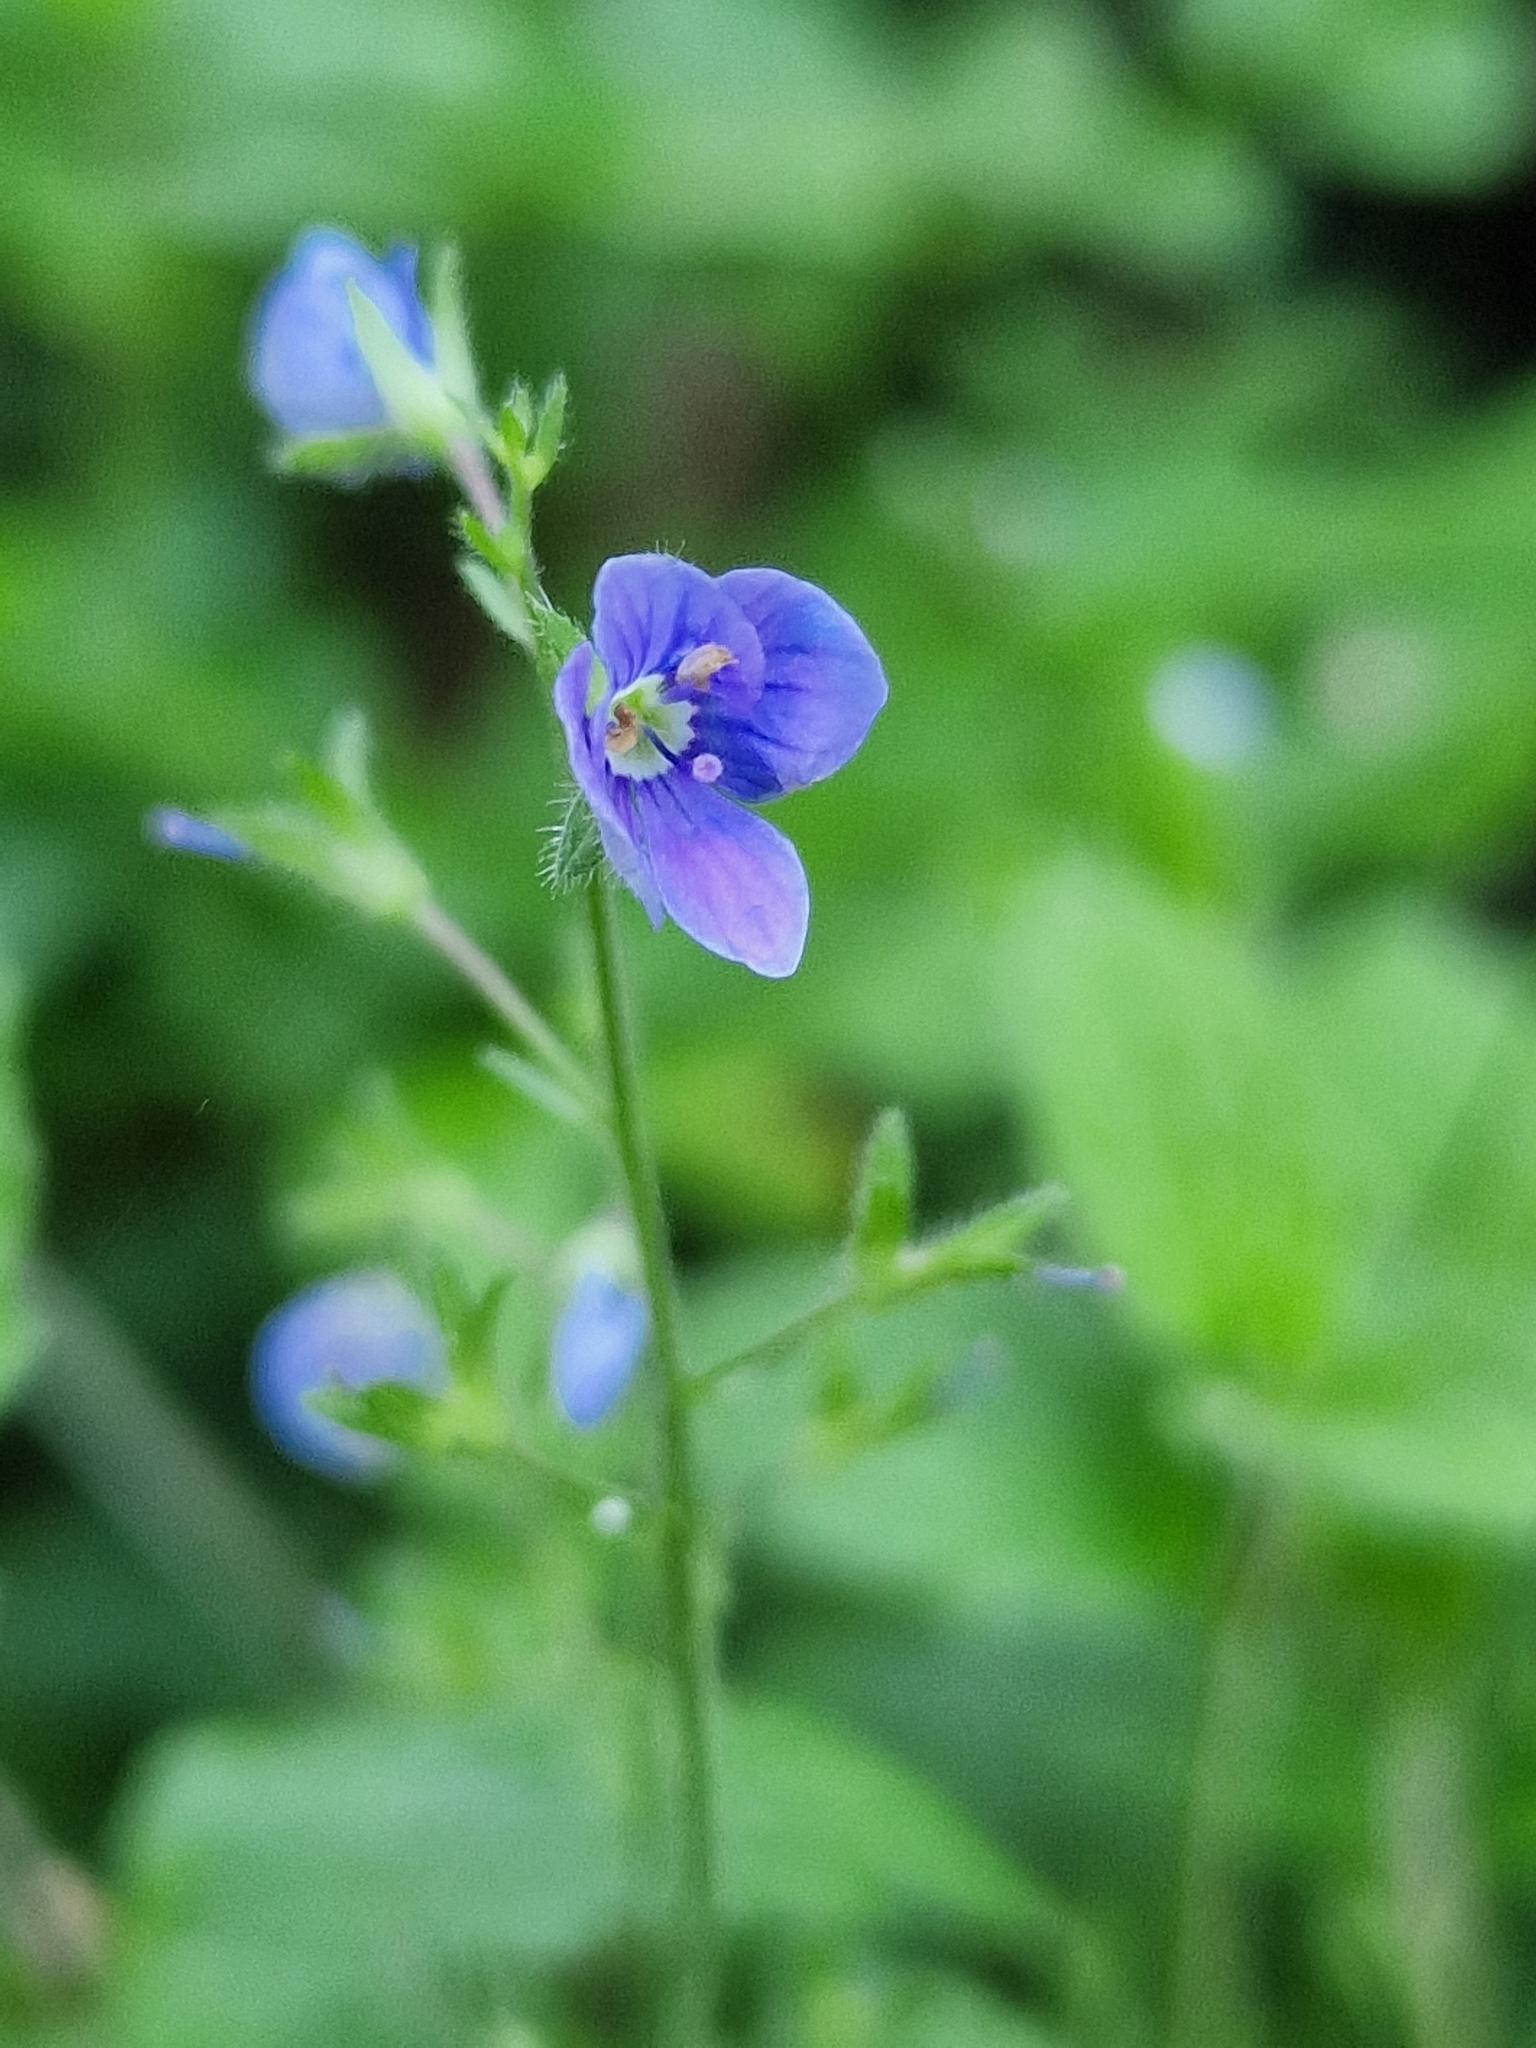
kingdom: Plantae
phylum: Tracheophyta
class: Magnoliopsida
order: Lamiales
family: Plantaginaceae
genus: Veronica
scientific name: Veronica chamaedrys
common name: Germander speedwell
